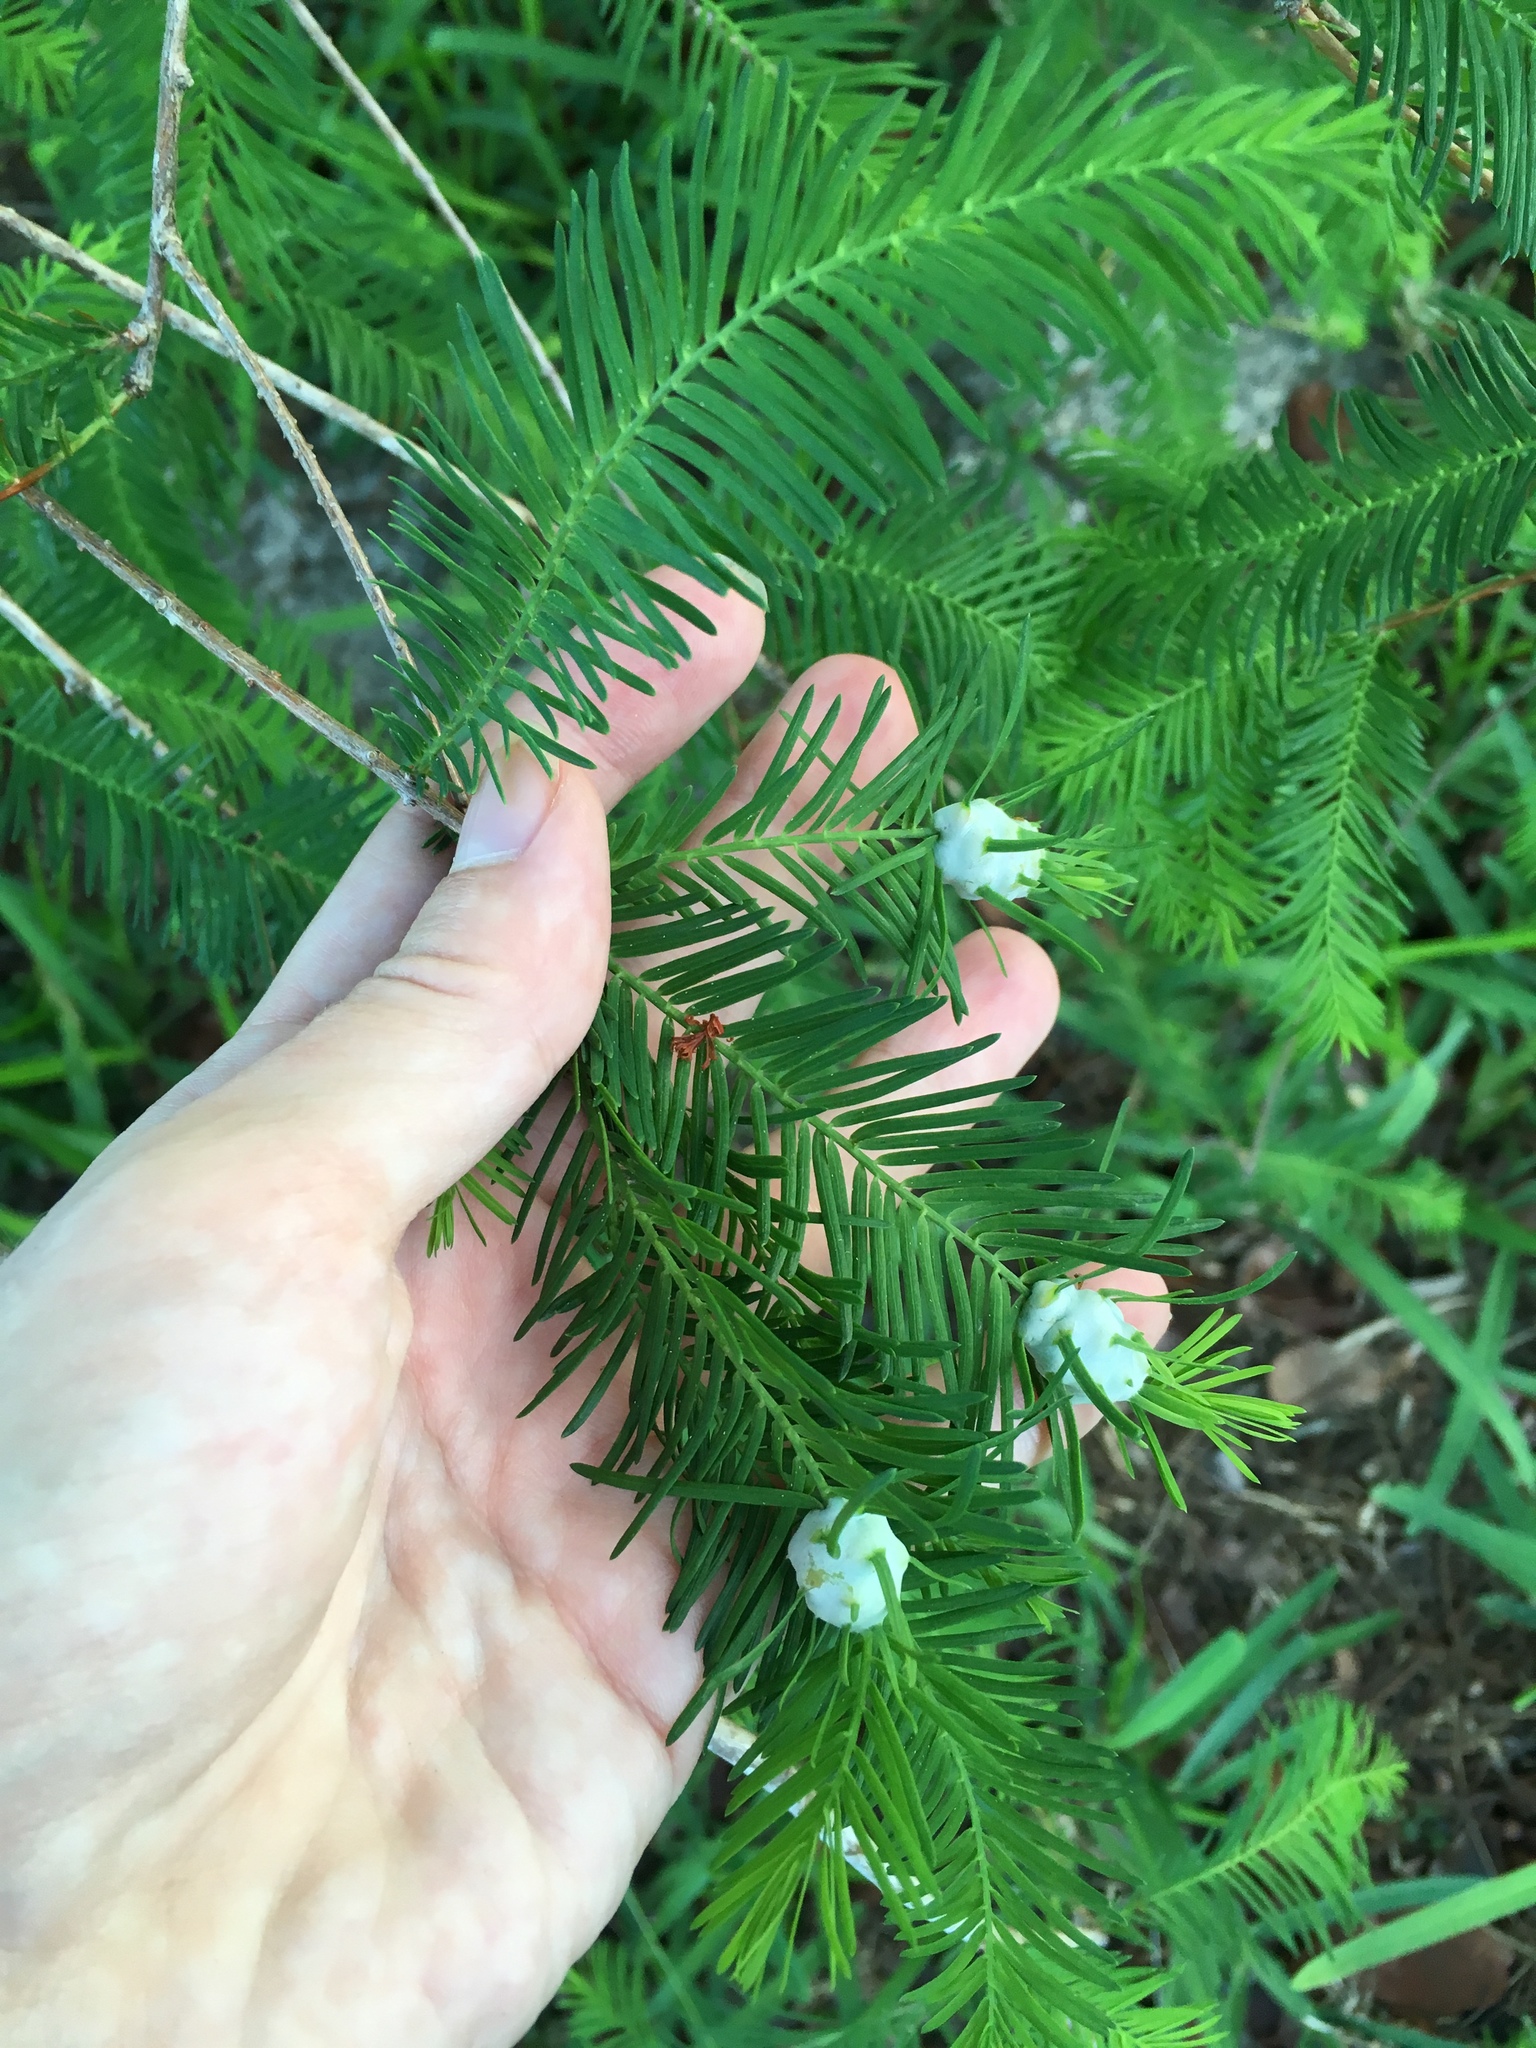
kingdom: Animalia
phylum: Arthropoda
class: Insecta
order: Diptera
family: Cecidomyiidae
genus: Taxodiomyia
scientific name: Taxodiomyia cupressiananassa
